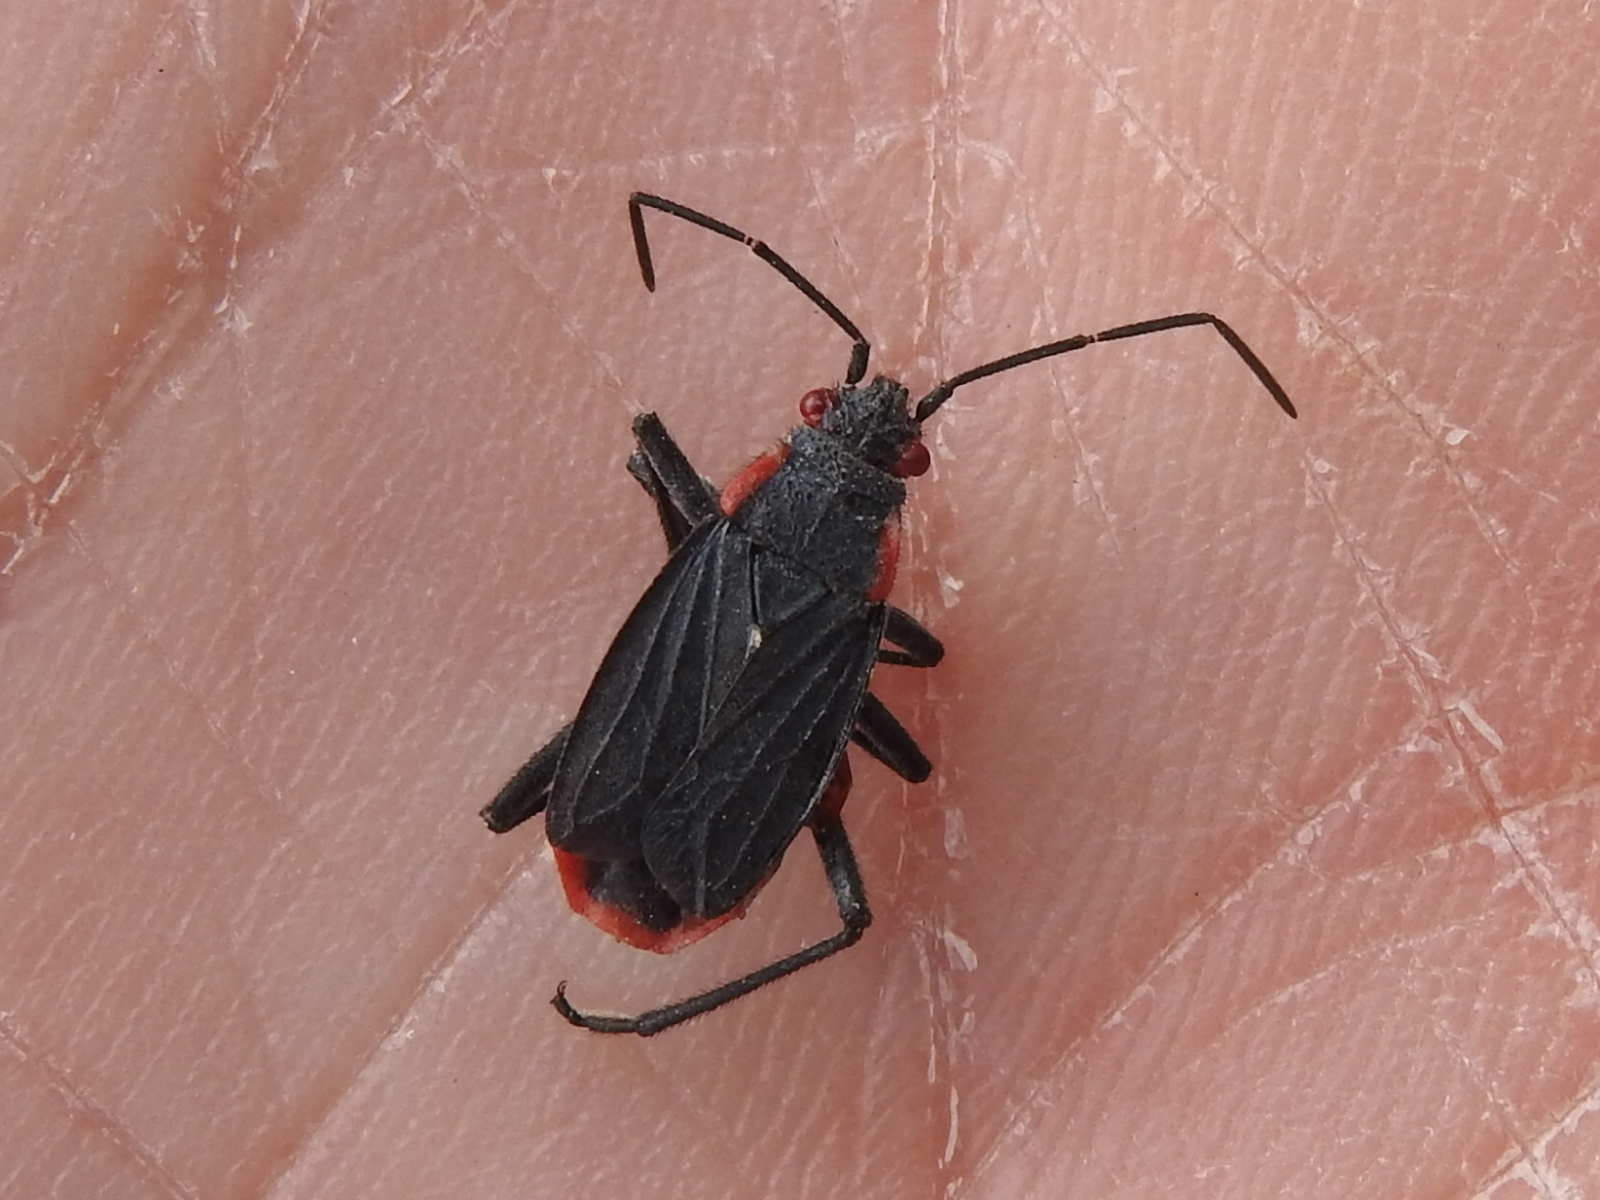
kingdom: Animalia
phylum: Arthropoda
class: Insecta
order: Hemiptera
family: Rhopalidae
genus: Jadera
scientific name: Jadera haematoloma
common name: Red-shouldered bug
